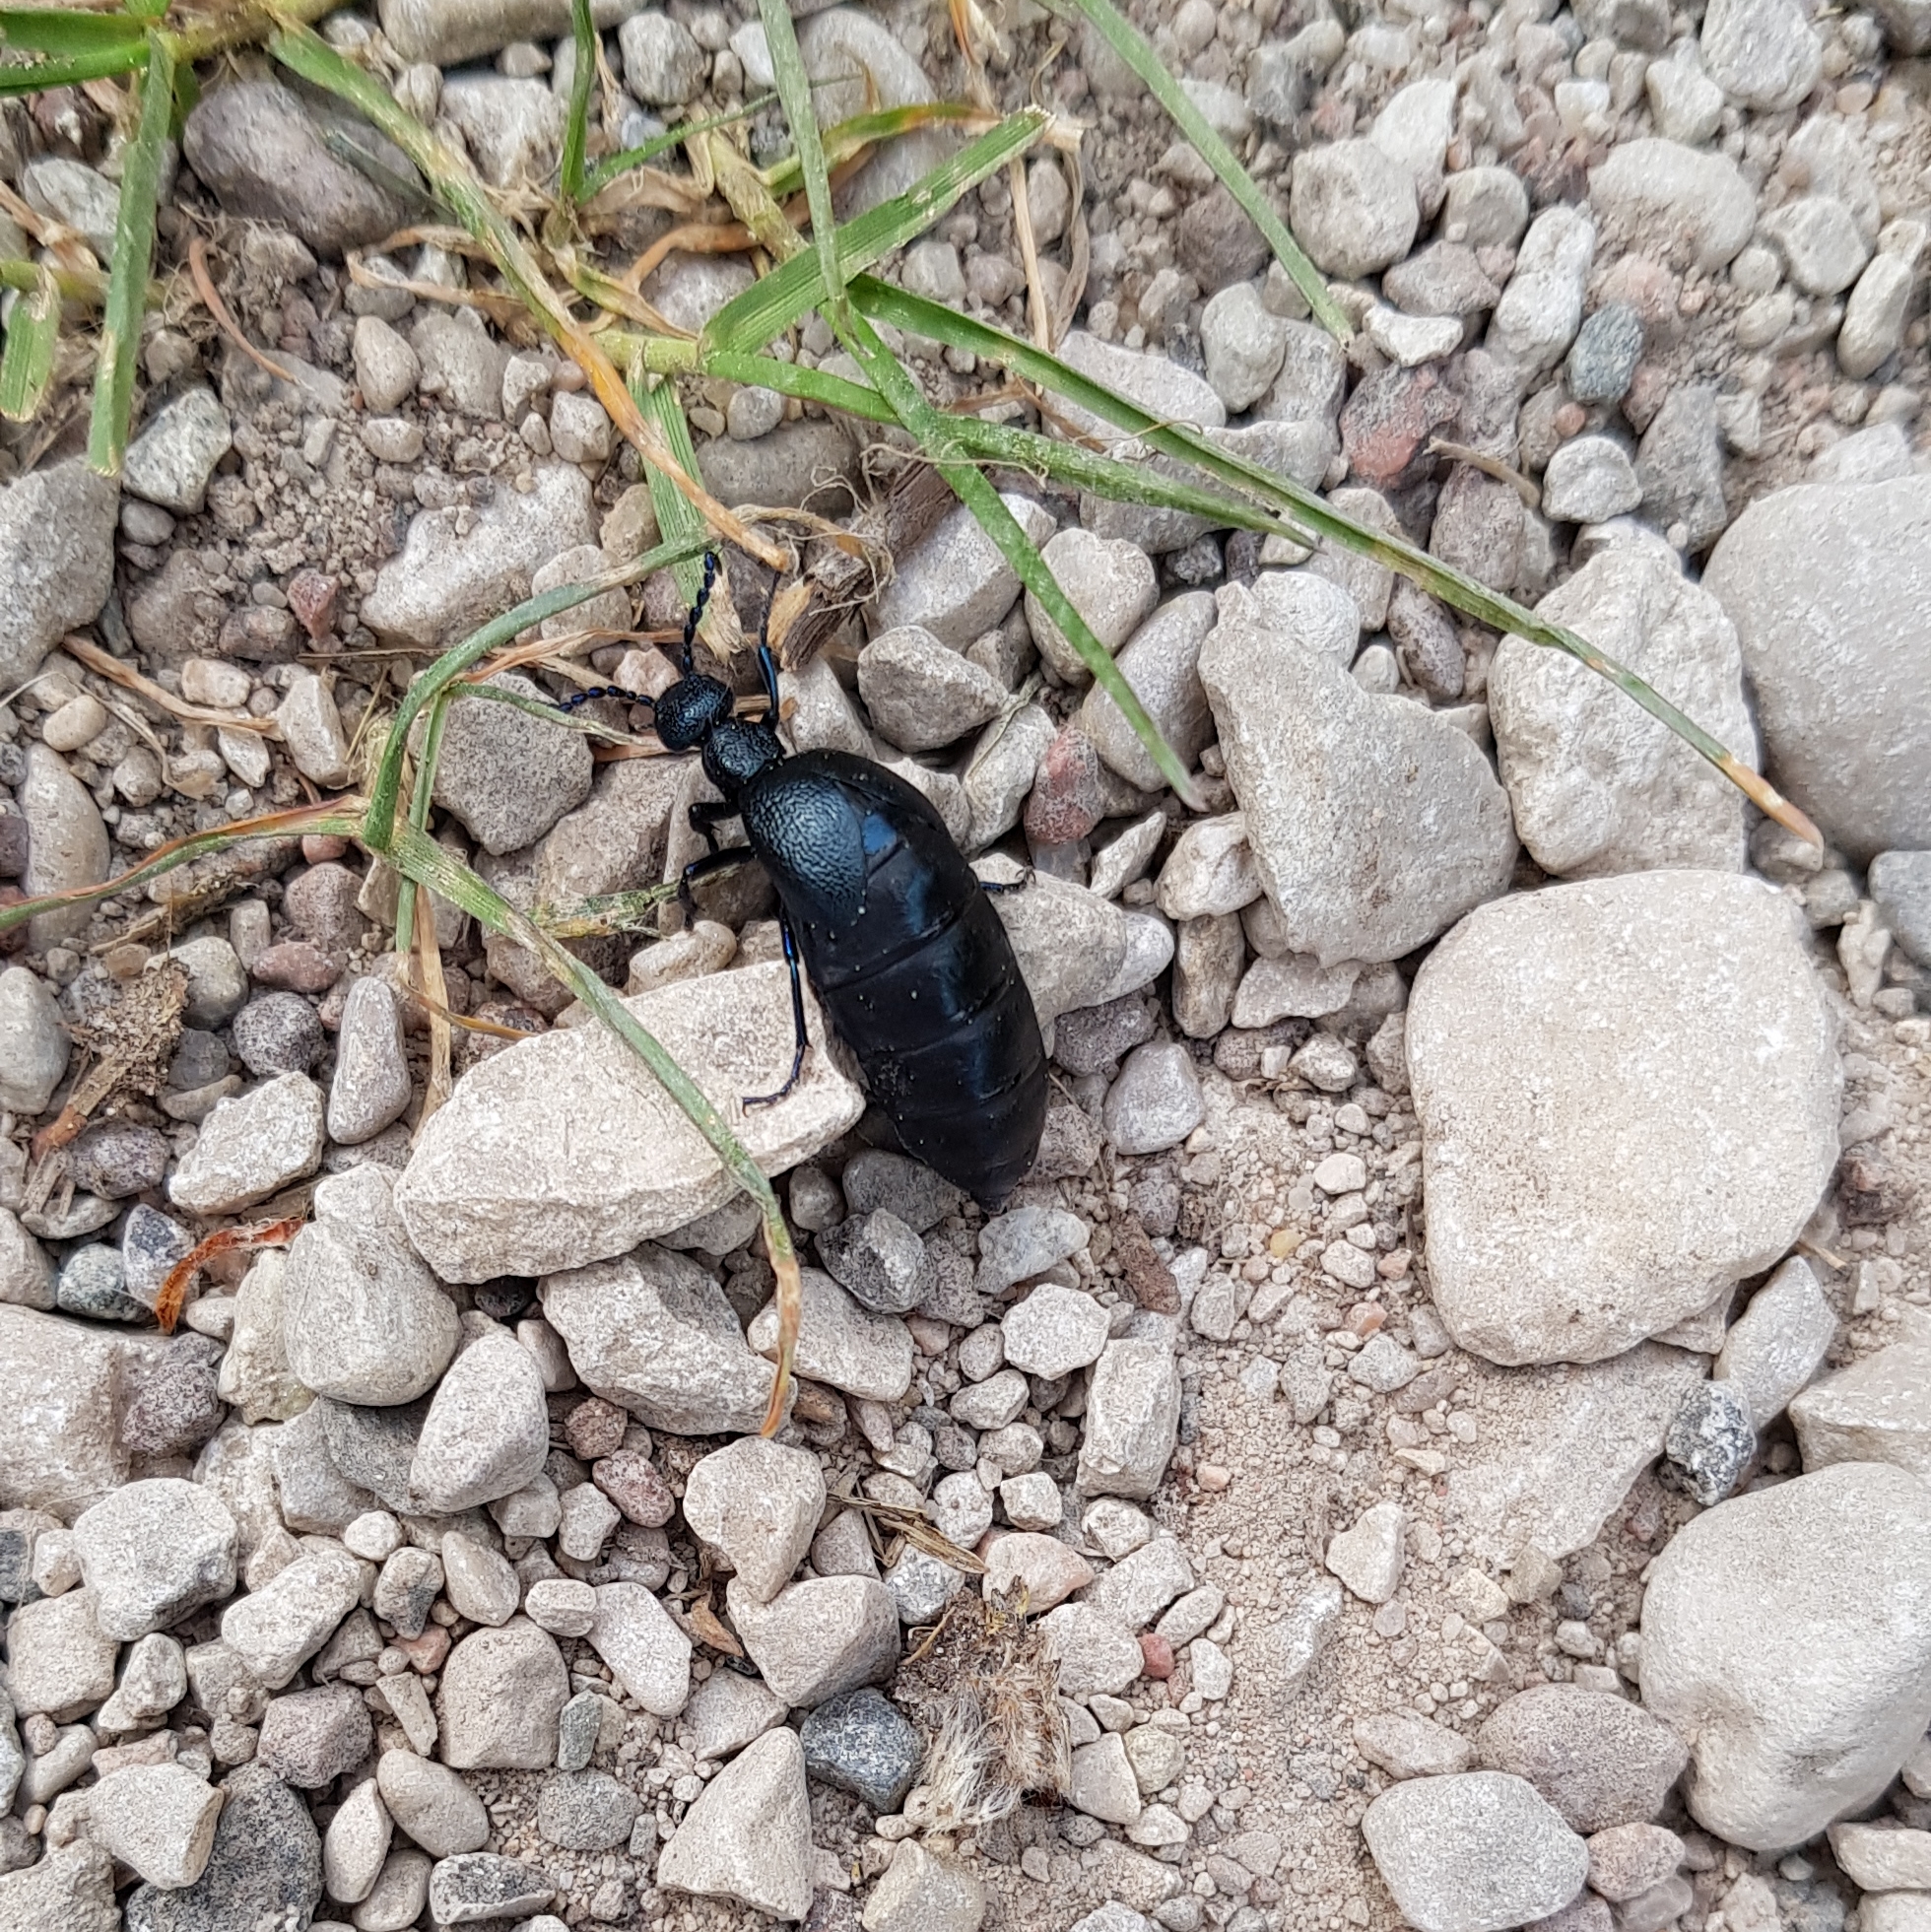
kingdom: Animalia
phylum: Arthropoda
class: Insecta
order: Coleoptera
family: Meloidae
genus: Meloe
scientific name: Meloe proscarabaeus
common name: Black oil-beetle
